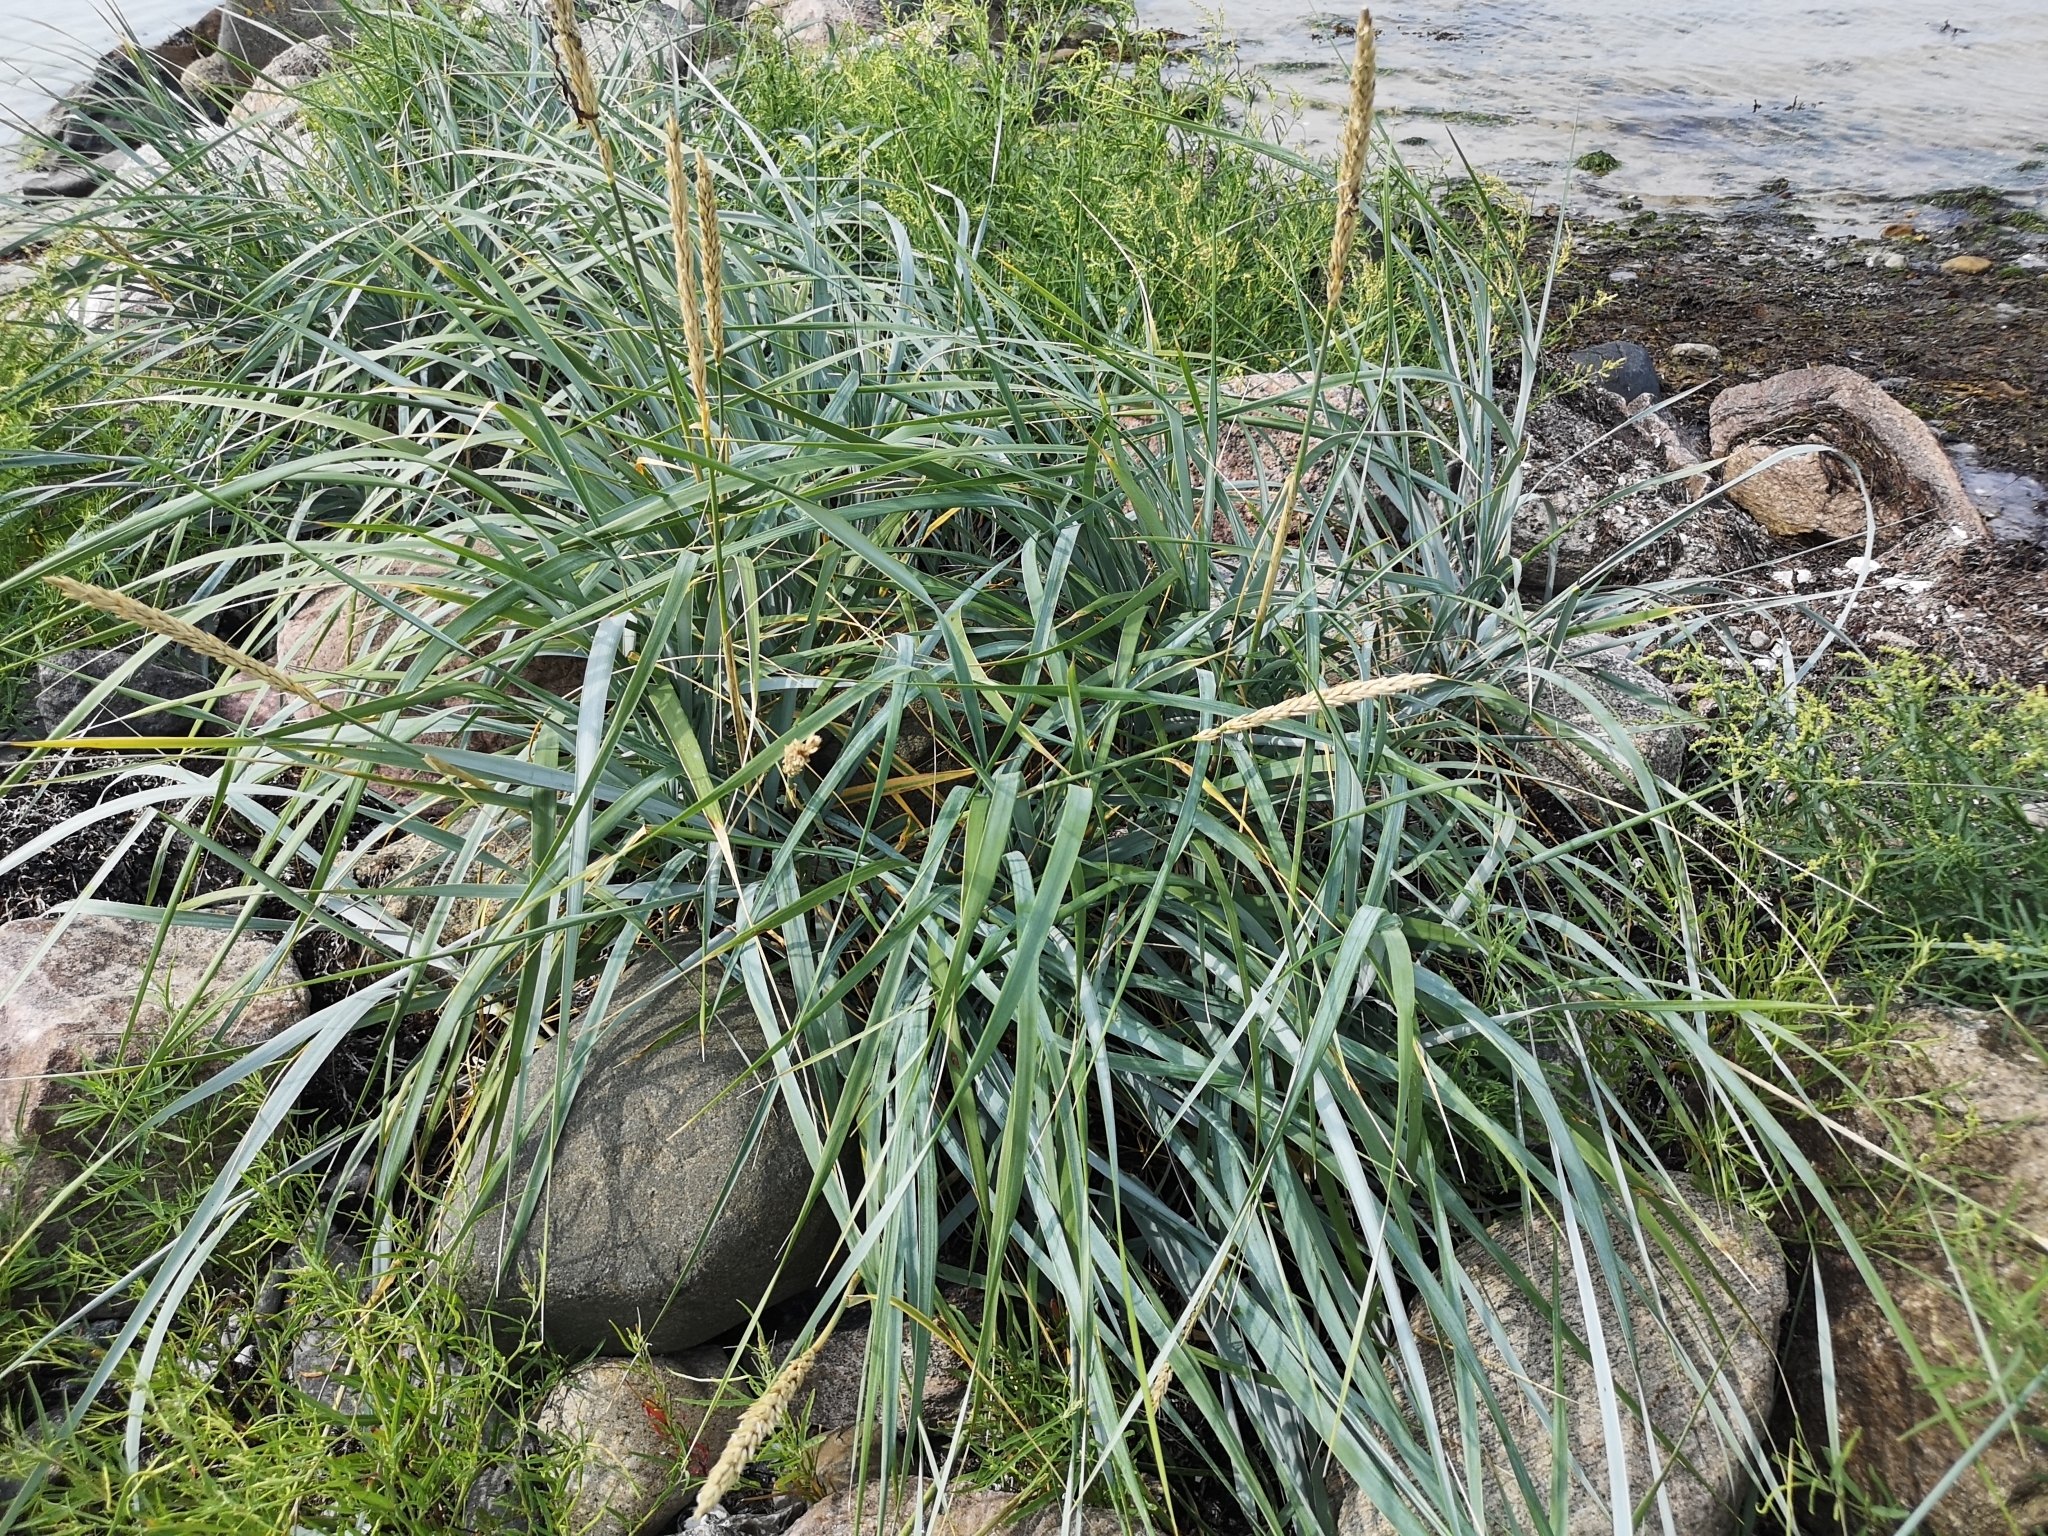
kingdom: Plantae
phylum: Tracheophyta
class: Liliopsida
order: Poales
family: Poaceae
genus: Leymus
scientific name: Leymus arenarius
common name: Lyme-grass
